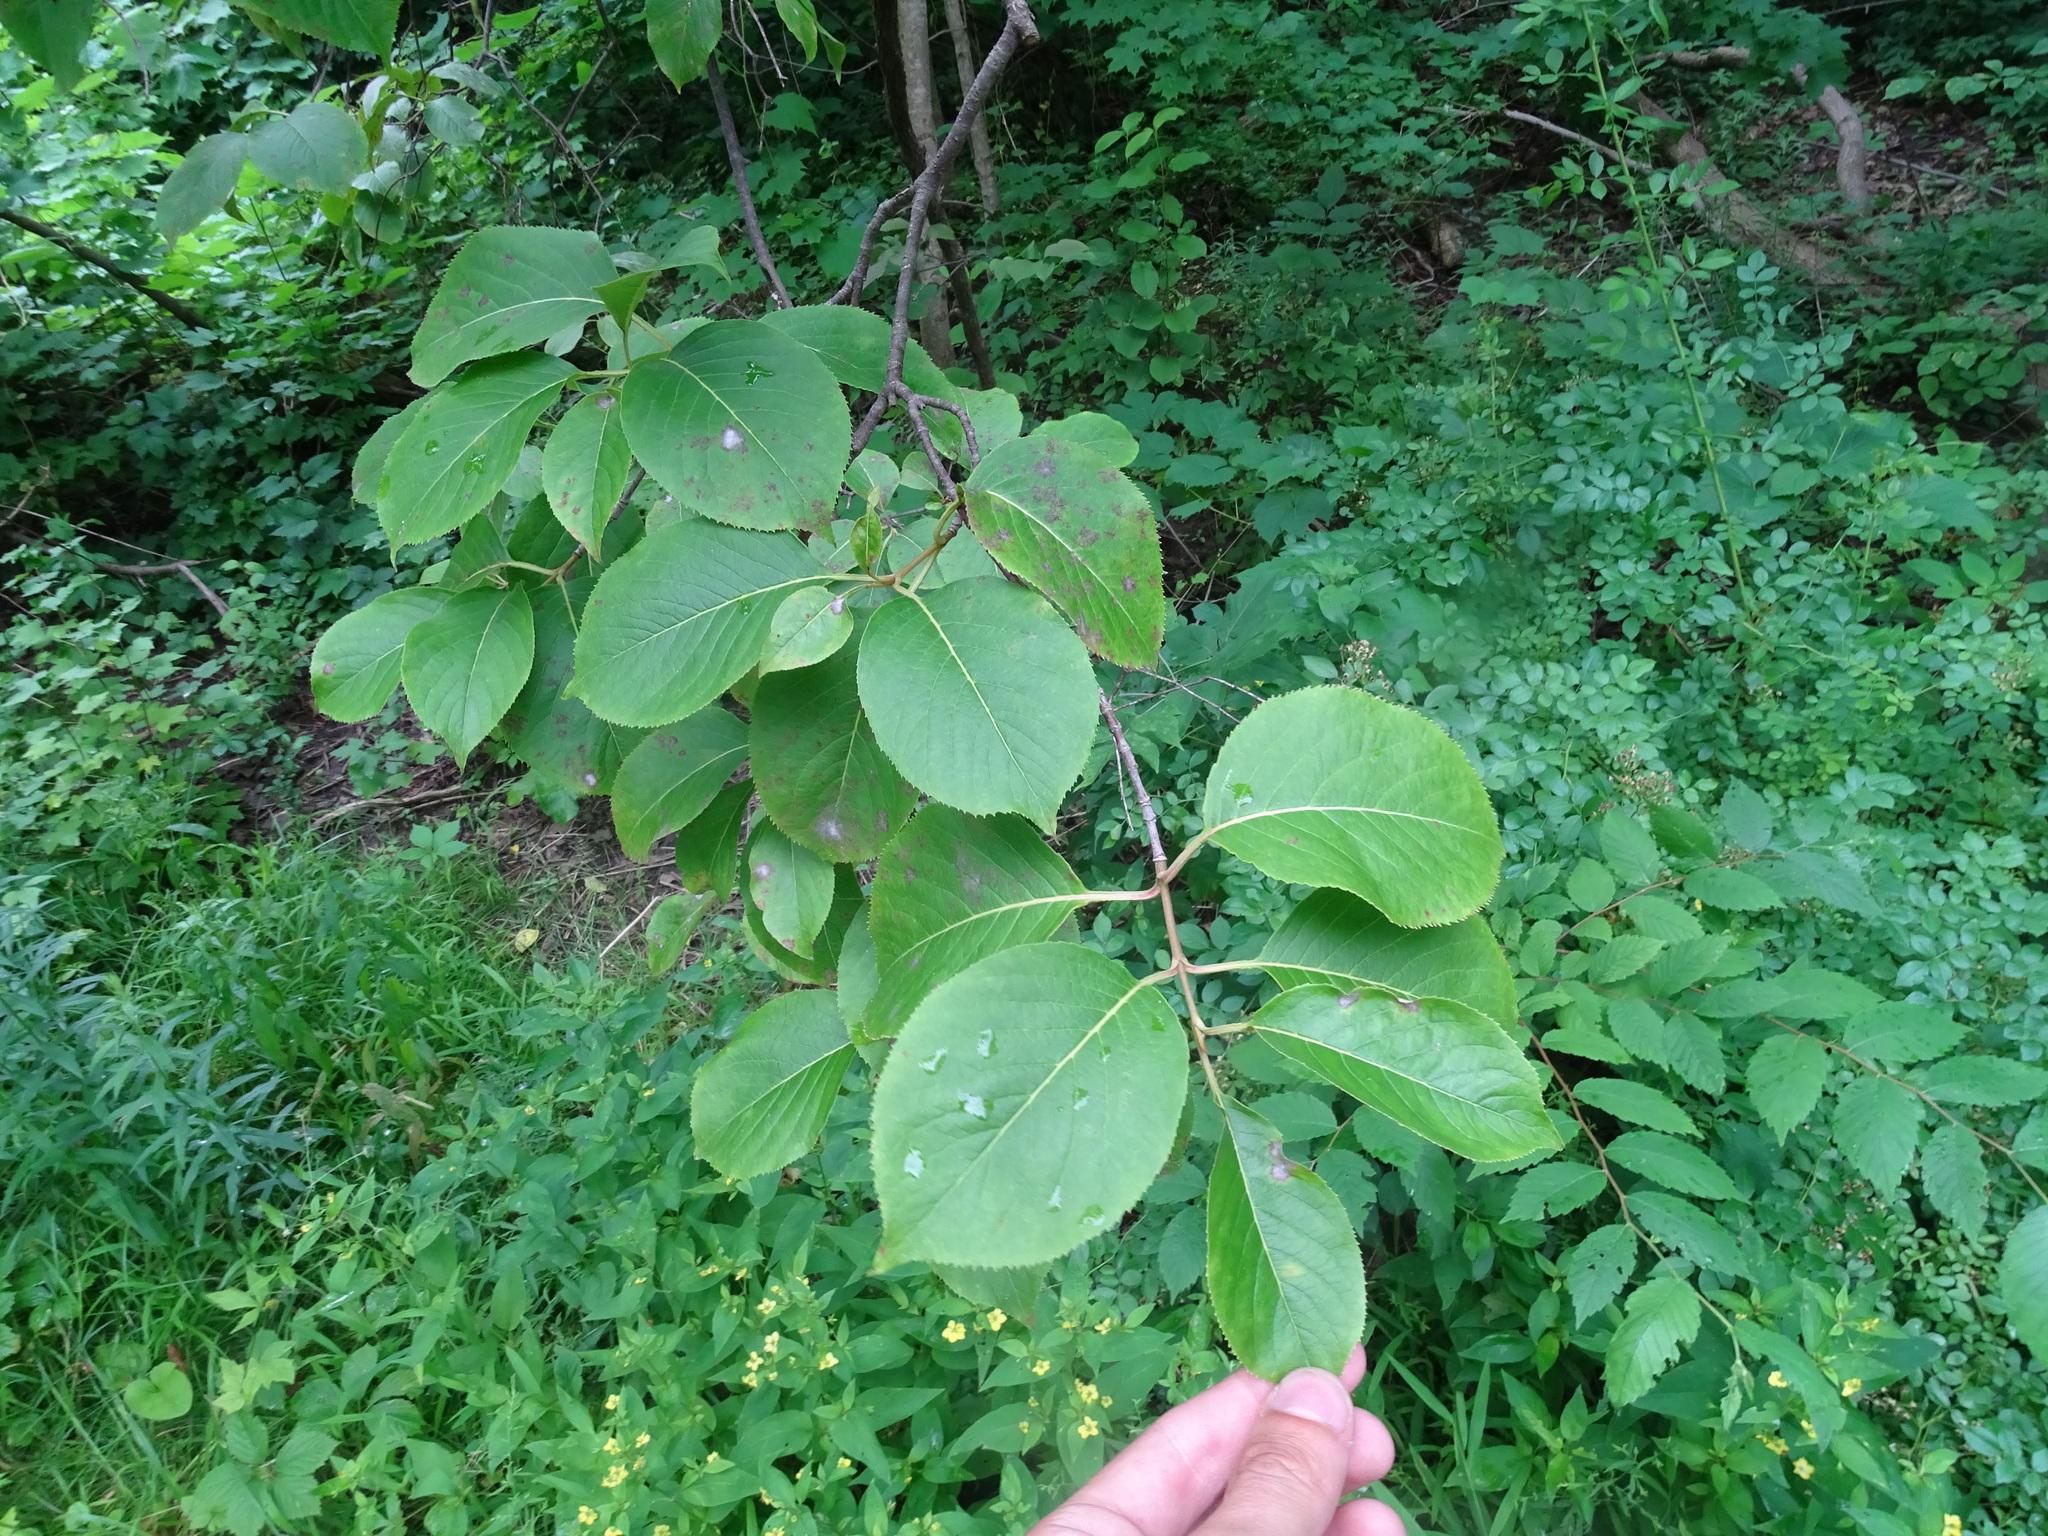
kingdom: Plantae
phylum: Tracheophyta
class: Magnoliopsida
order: Dipsacales
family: Viburnaceae
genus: Viburnum
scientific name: Viburnum lentago
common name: Black haw
